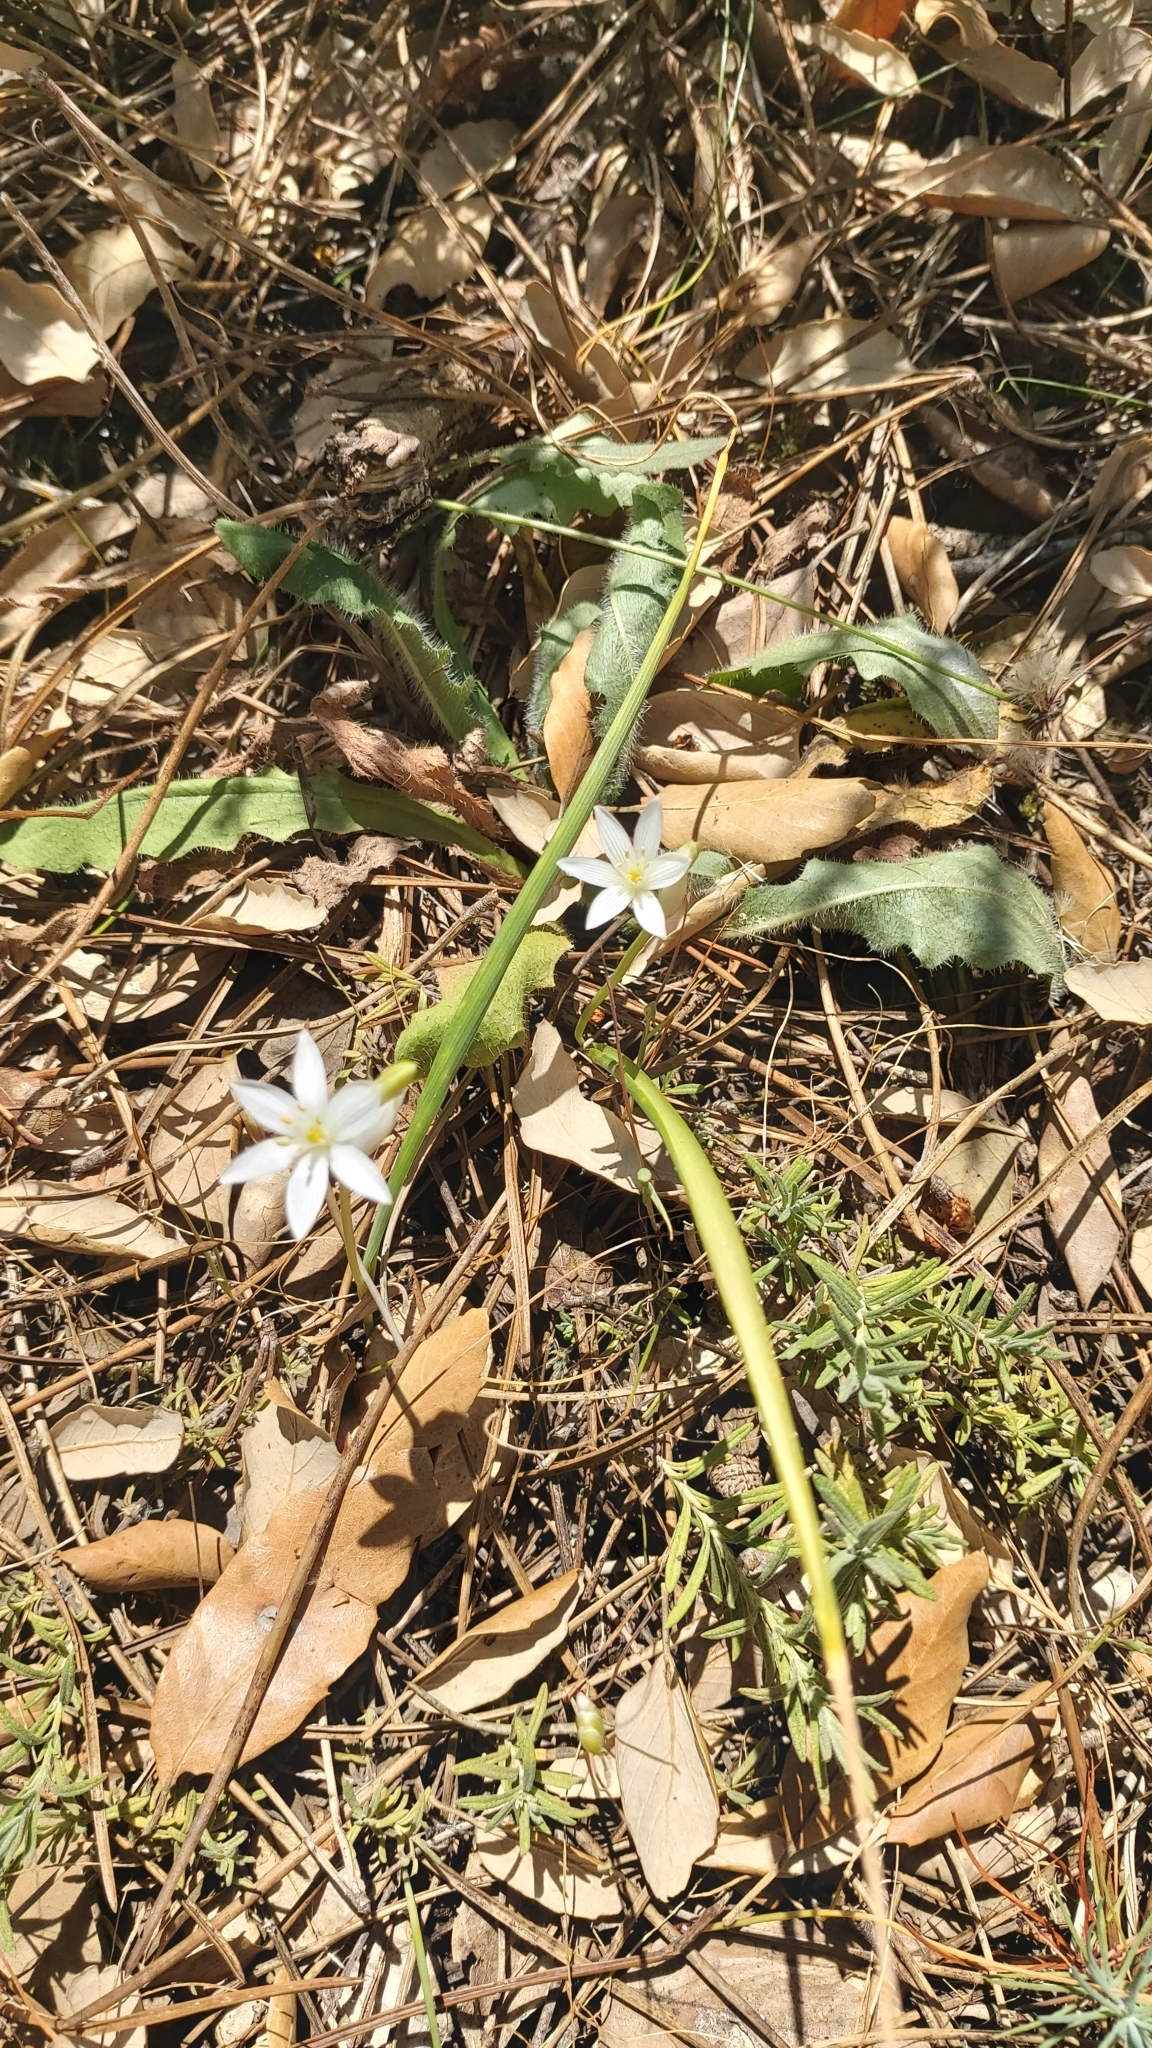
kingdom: Plantae
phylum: Tracheophyta
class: Liliopsida
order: Asparagales
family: Asphodelaceae
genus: Simethis
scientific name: Simethis mattiazzii
